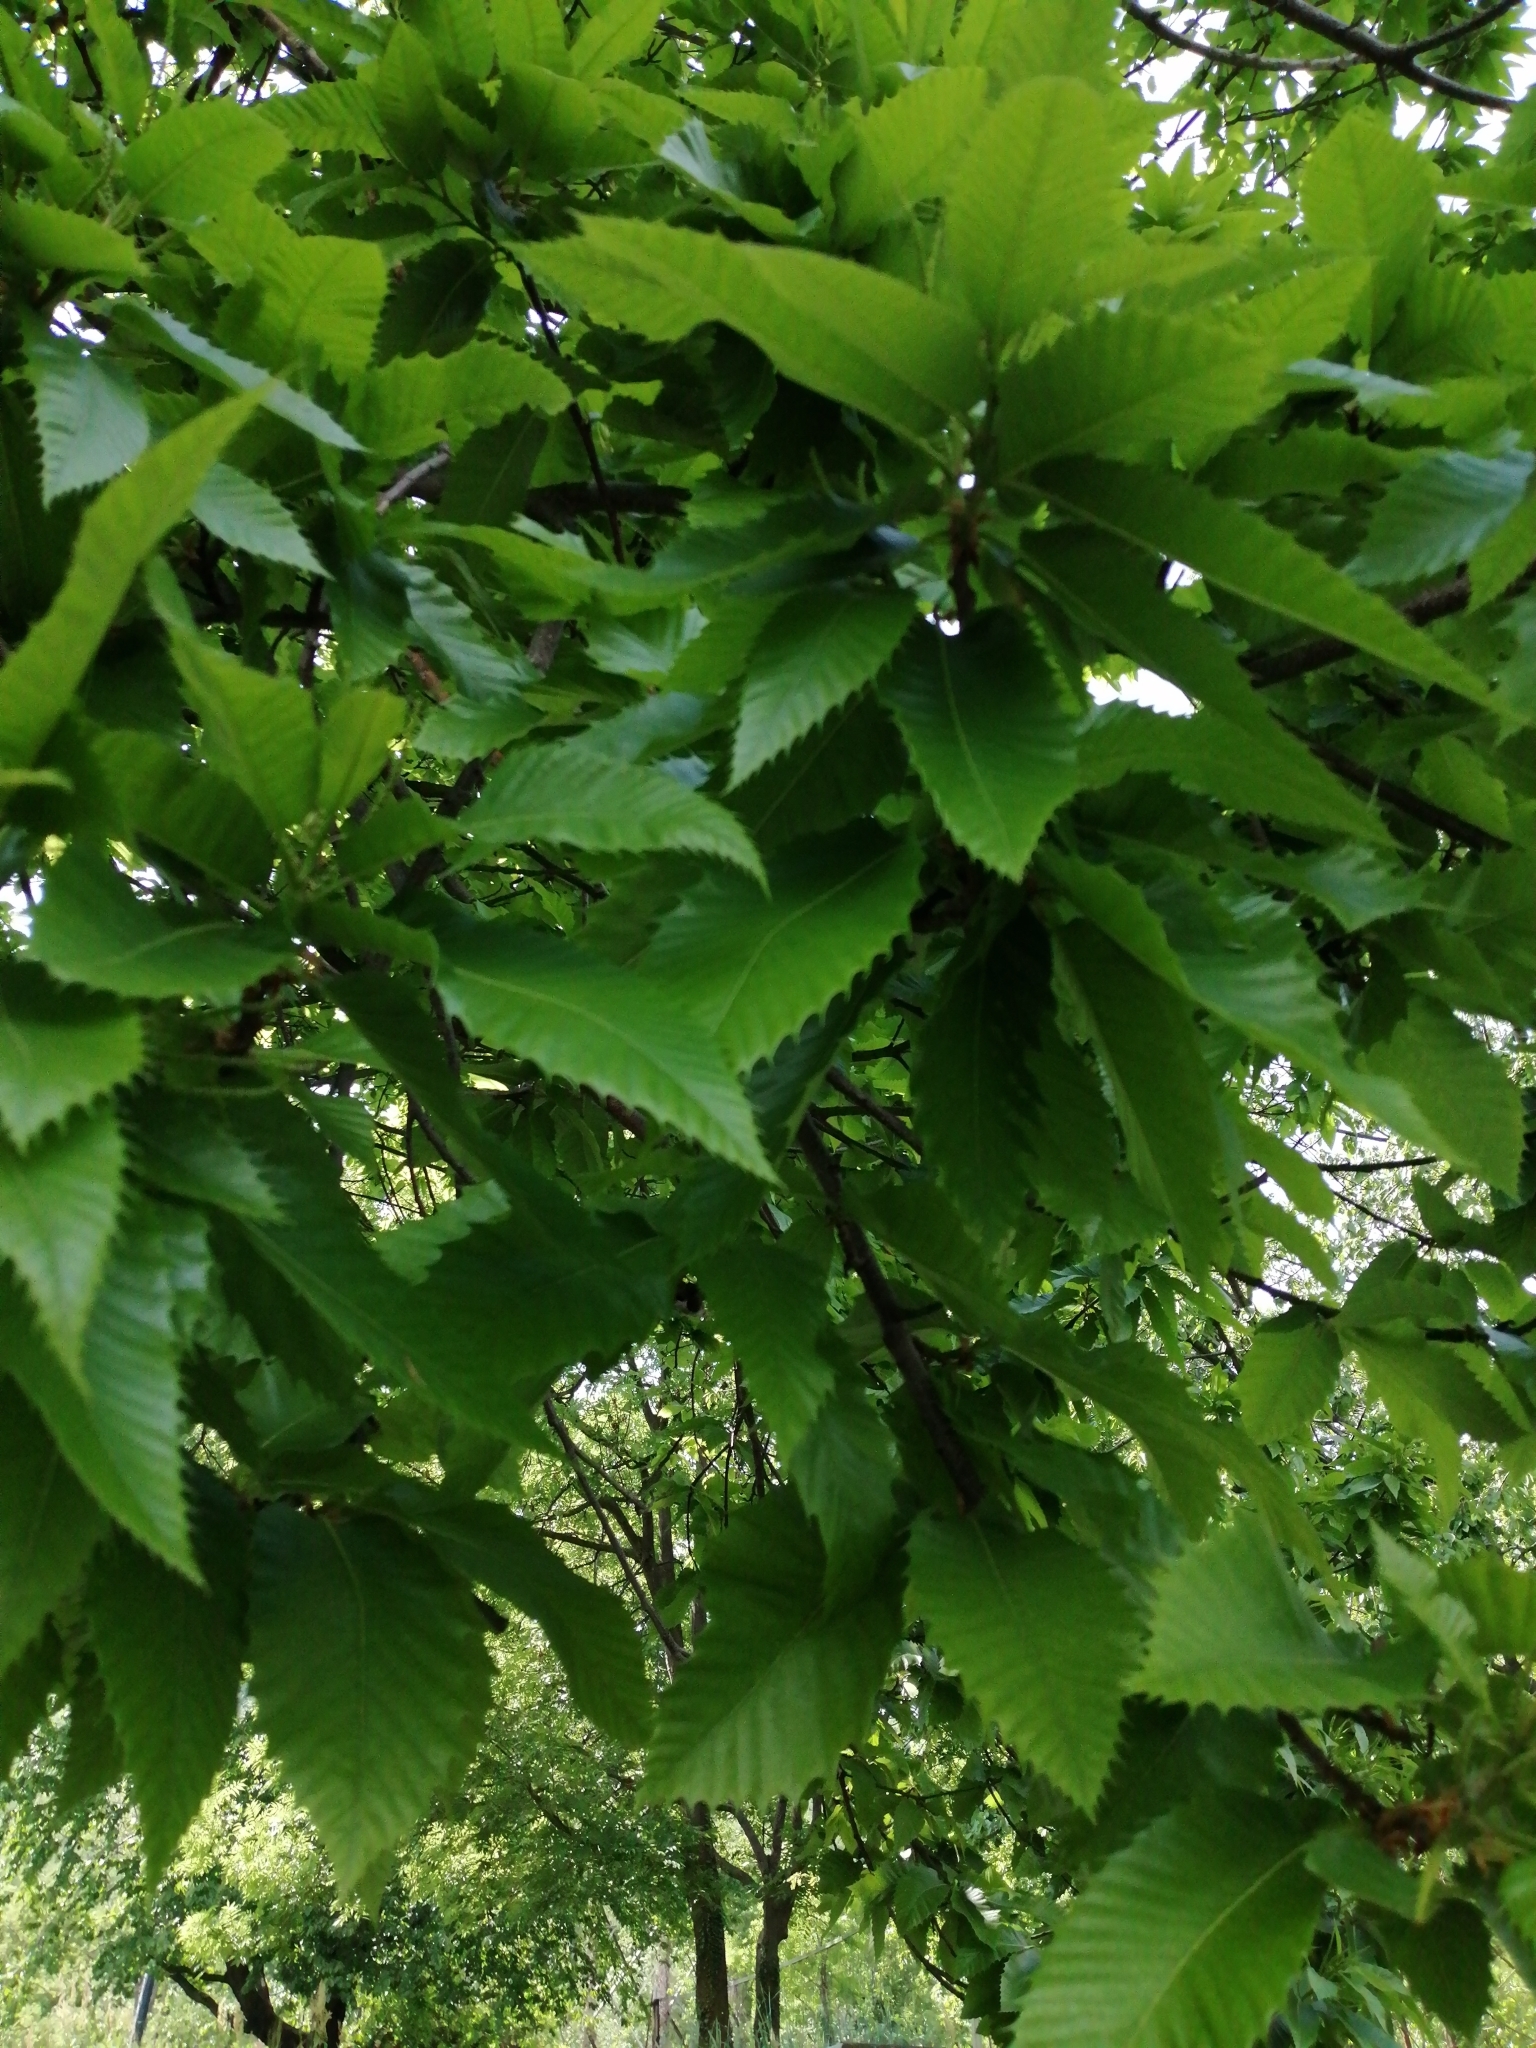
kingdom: Plantae
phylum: Tracheophyta
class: Magnoliopsida
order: Fagales
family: Fagaceae
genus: Castanea
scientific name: Castanea sativa
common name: Sweet chestnut
